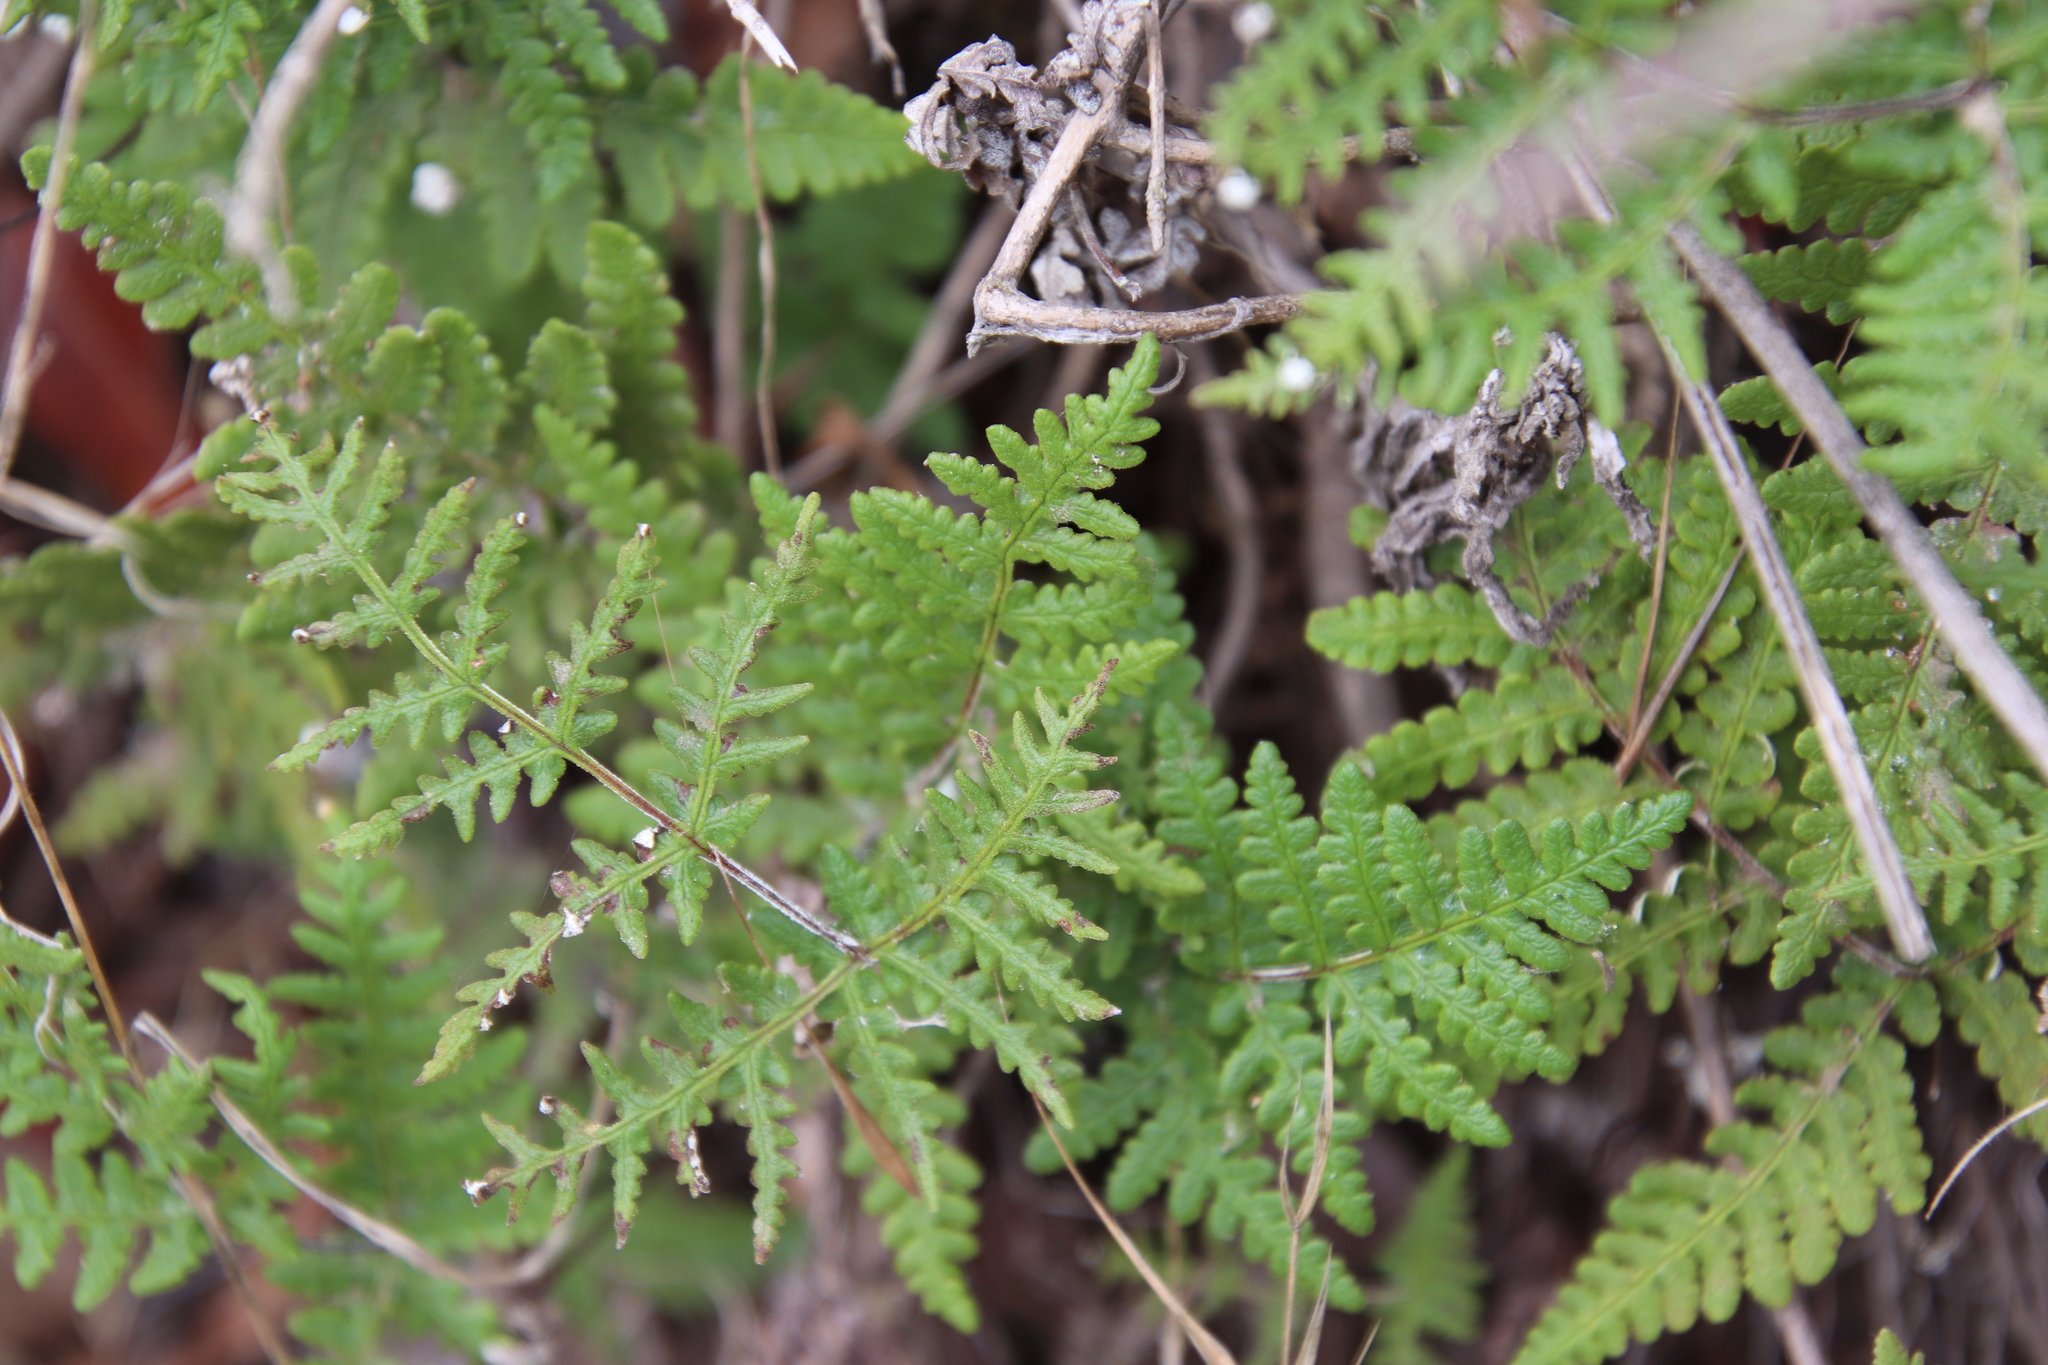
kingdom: Plantae
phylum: Tracheophyta
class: Polypodiopsida
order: Polypodiales
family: Pteridaceae
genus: Pentagramma
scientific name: Pentagramma glanduloviscida
